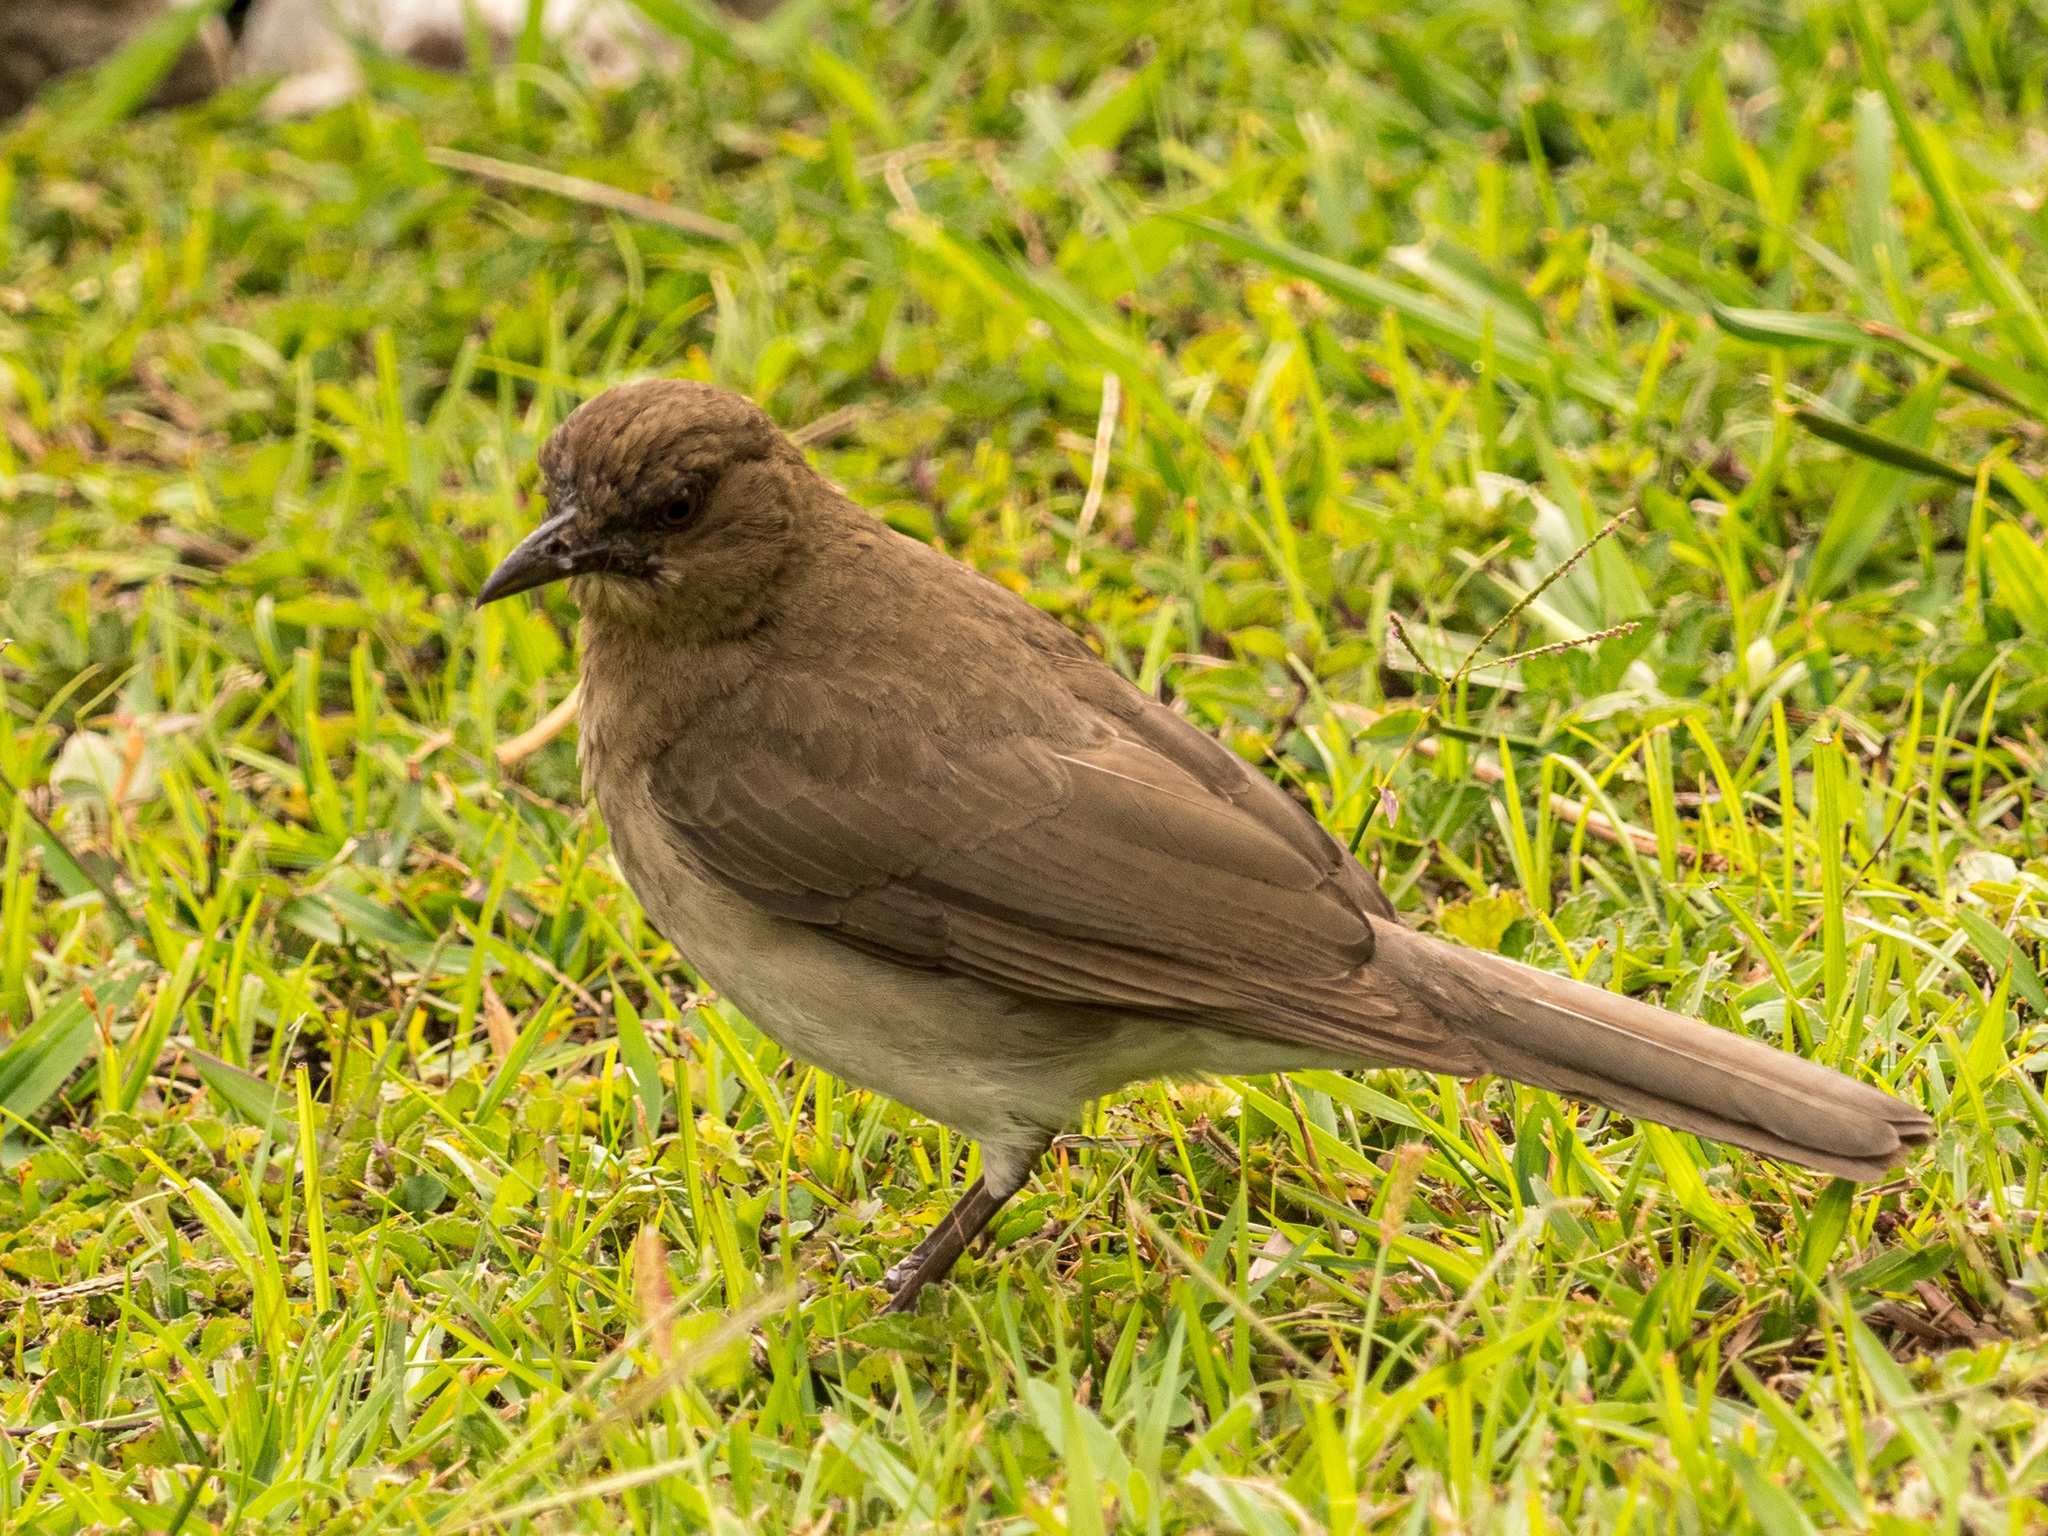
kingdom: Animalia
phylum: Chordata
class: Aves
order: Passeriformes
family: Turdidae
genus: Turdus
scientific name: Turdus ignobilis
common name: Black-billed thrush
